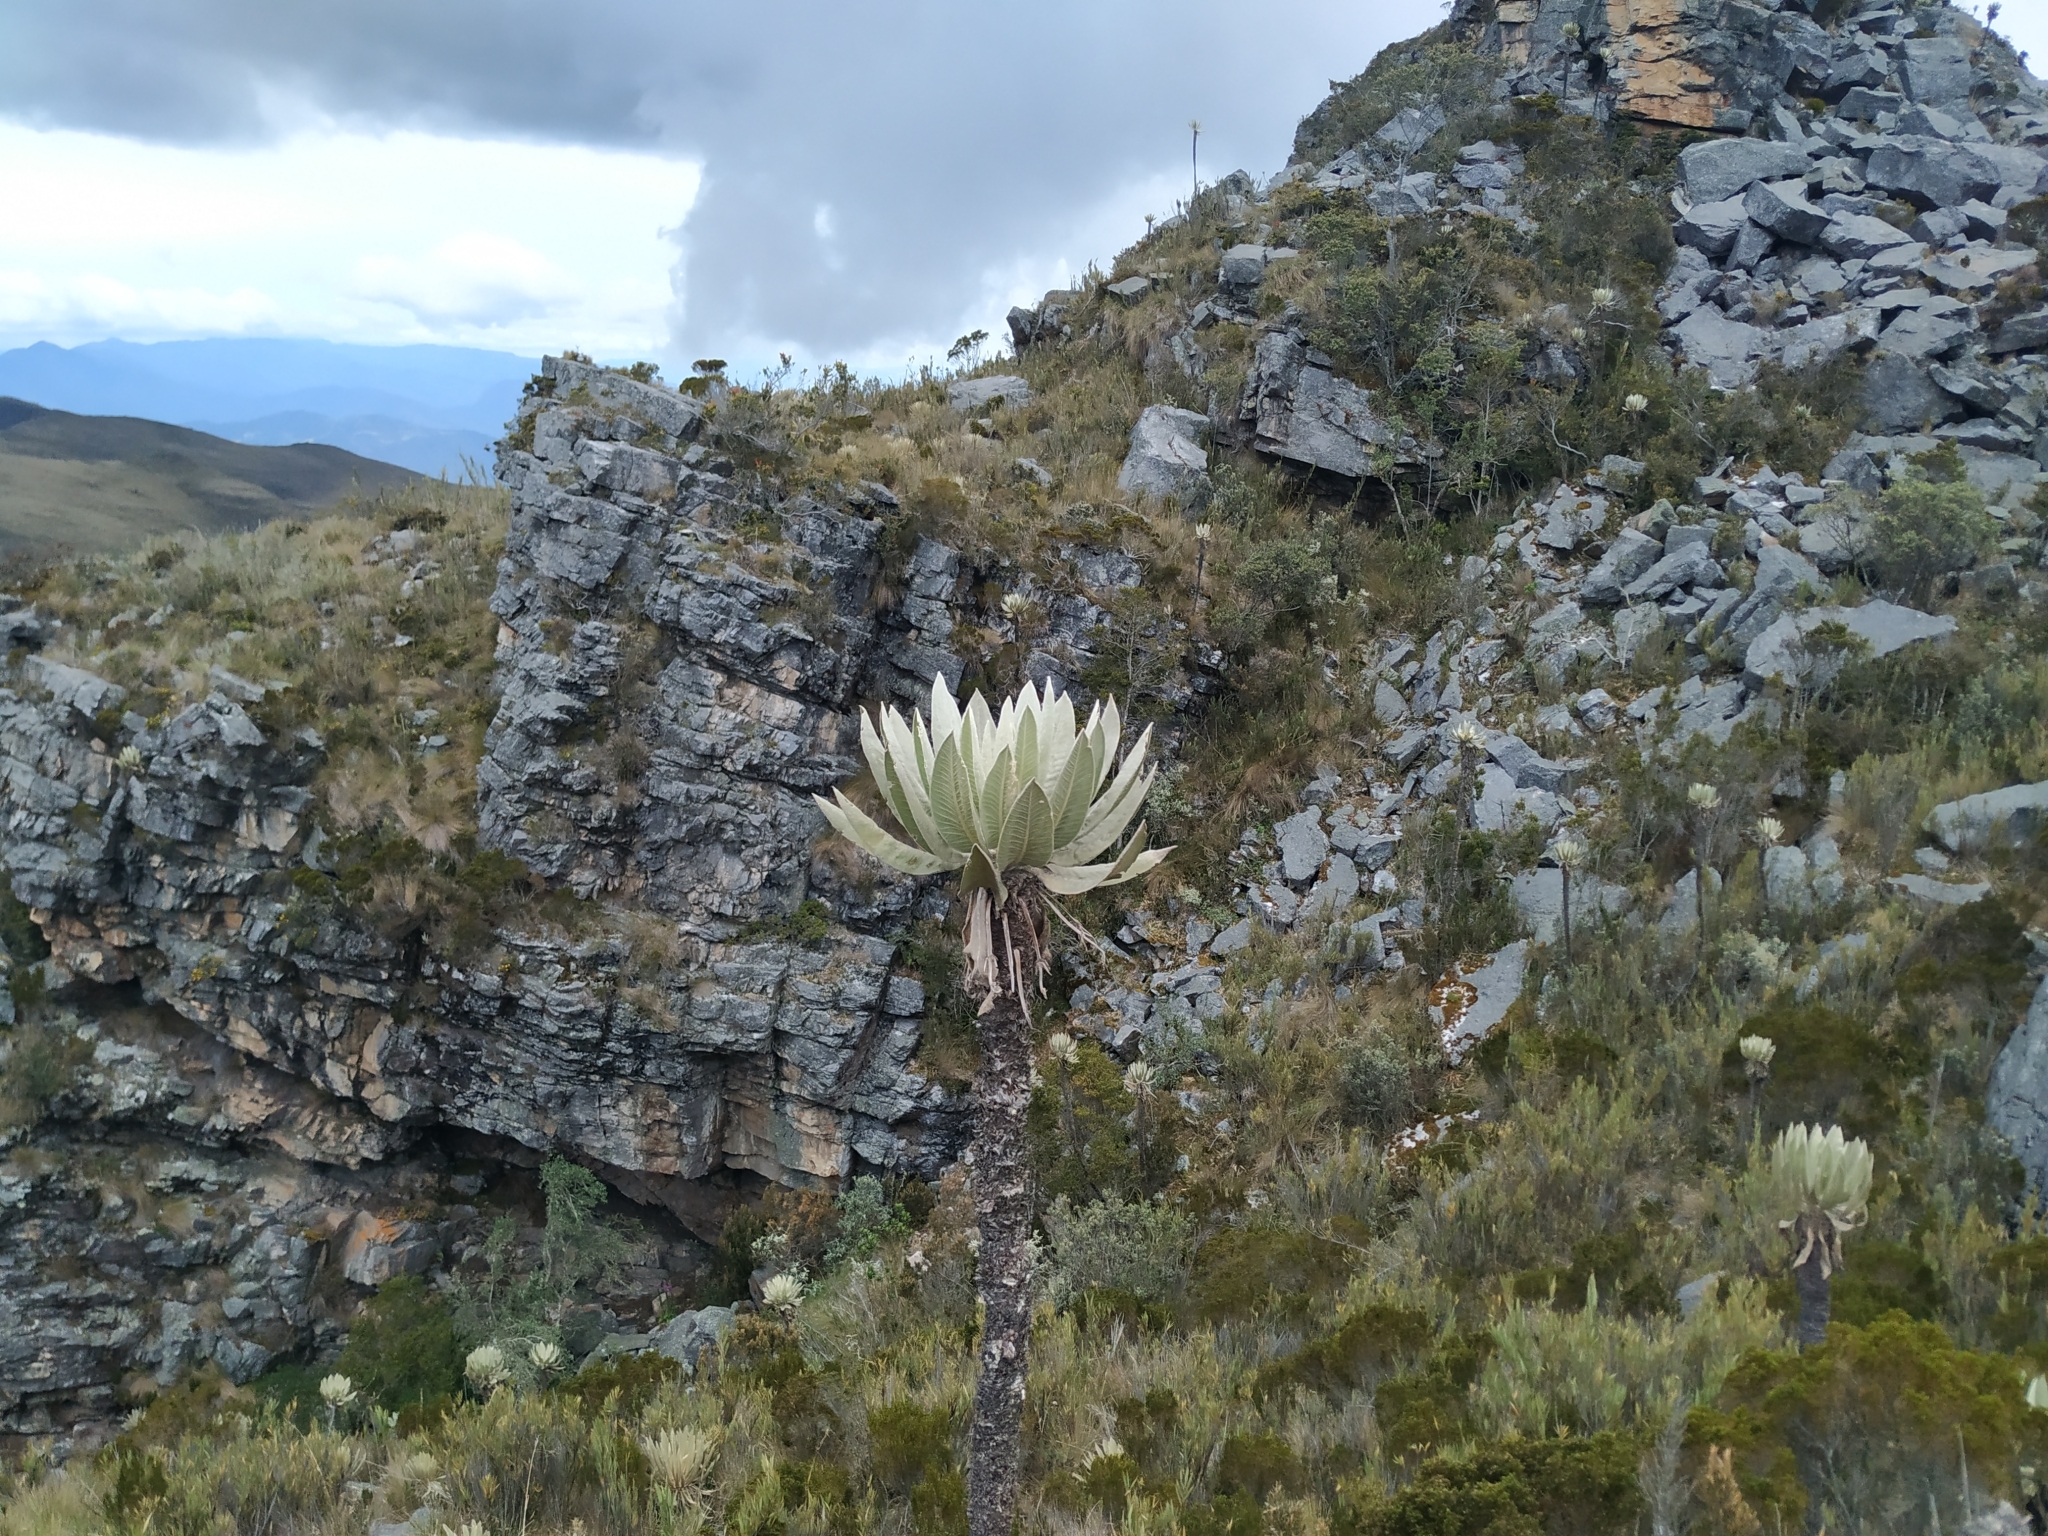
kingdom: Plantae
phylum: Tracheophyta
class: Magnoliopsida
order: Asterales
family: Asteraceae
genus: Espeletia
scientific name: Espeletia cachaluensis
